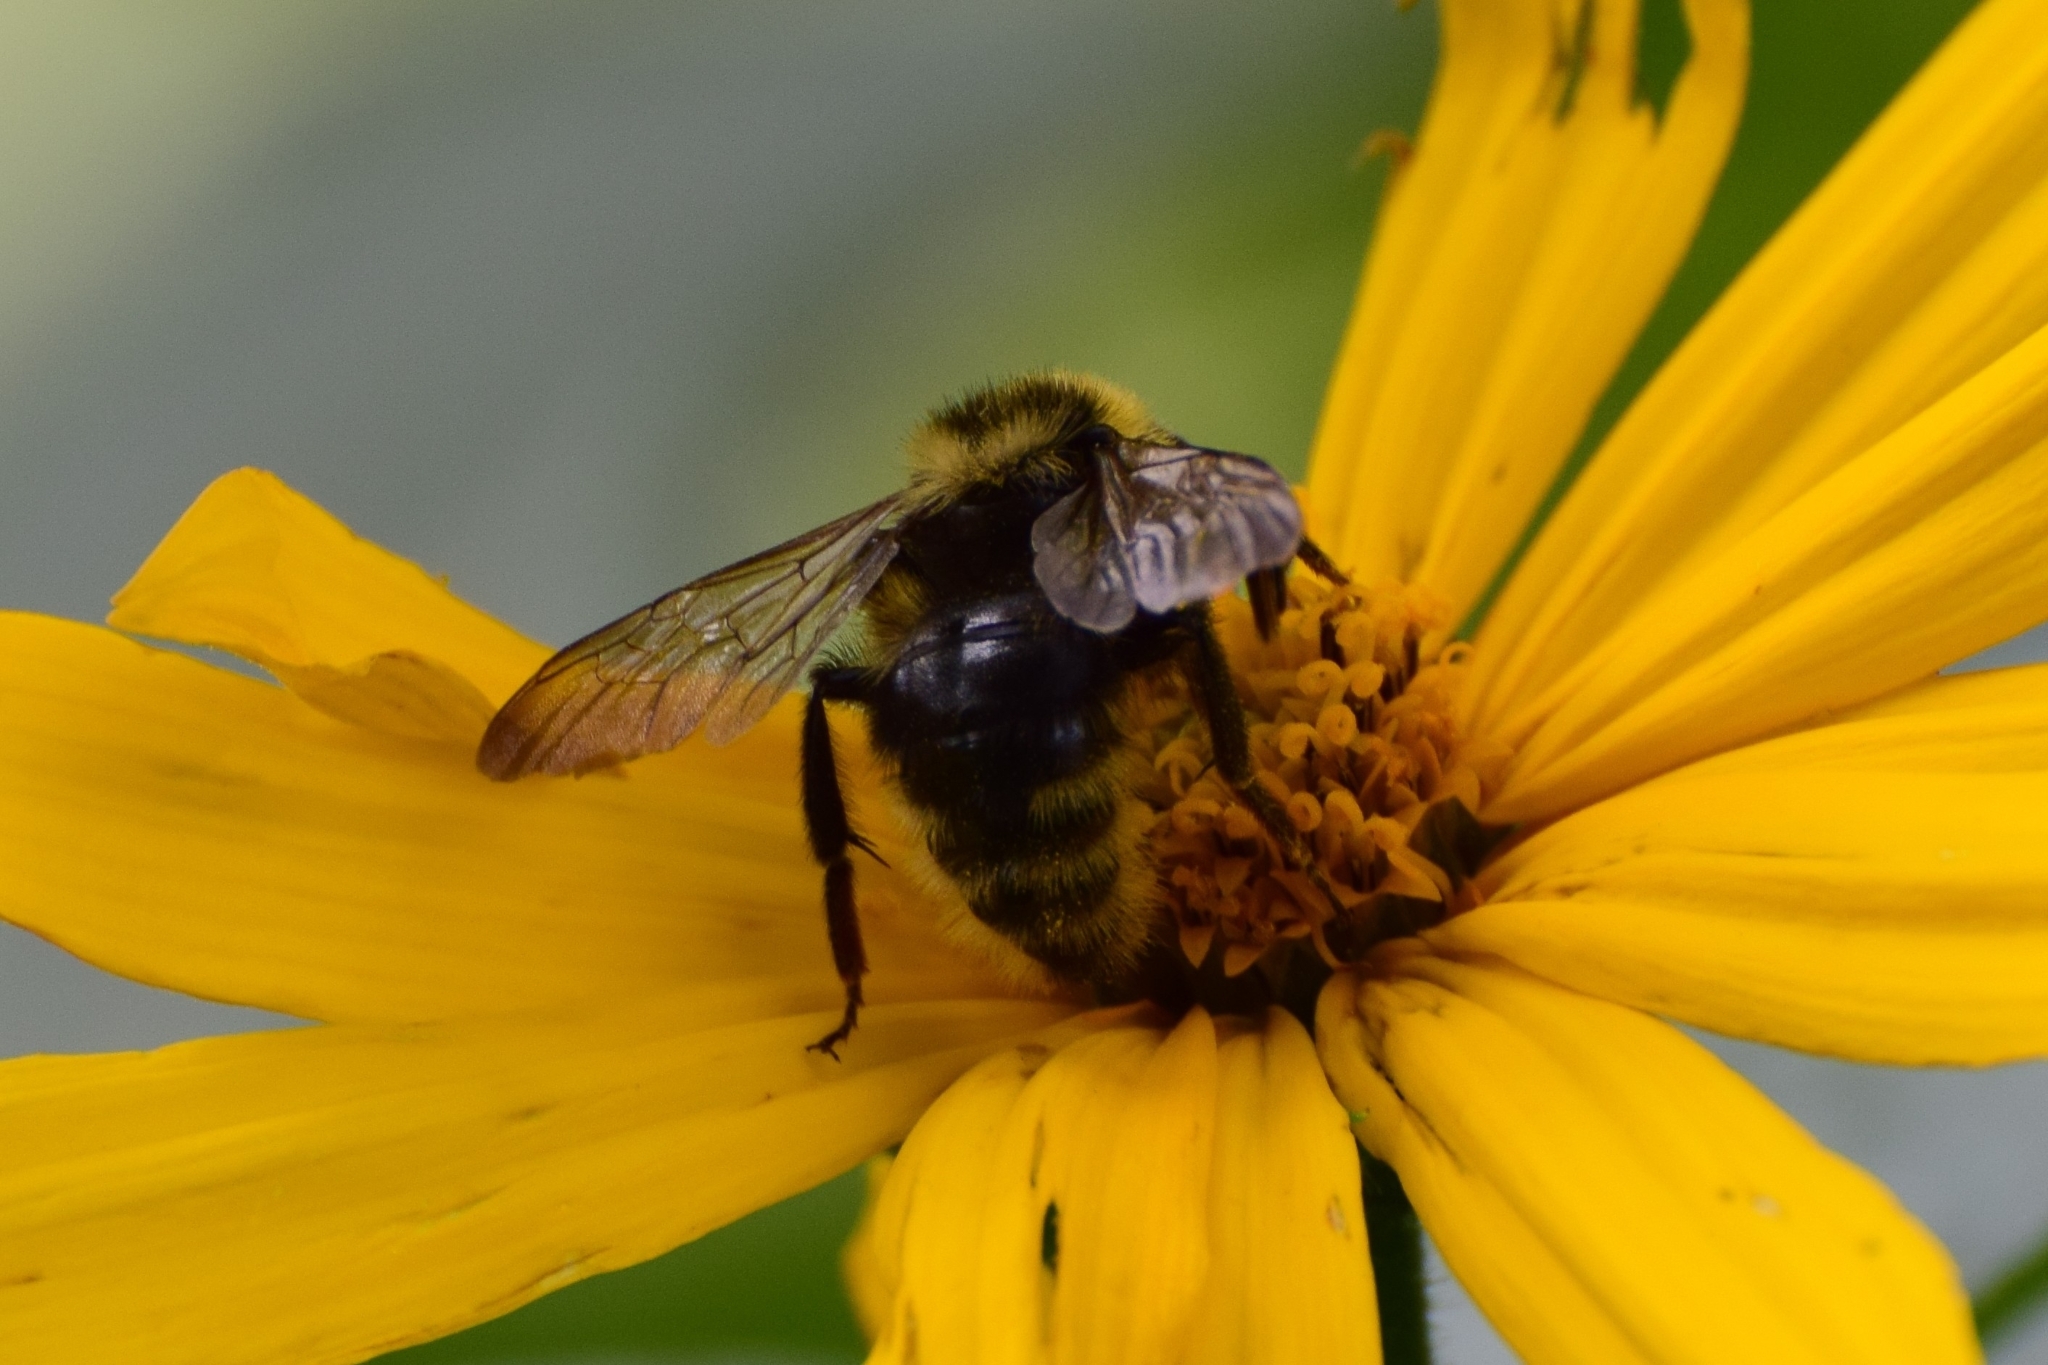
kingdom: Animalia
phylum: Arthropoda
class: Insecta
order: Hymenoptera
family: Apidae
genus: Bombus
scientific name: Bombus campestris
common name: Field cuckoo-bee
